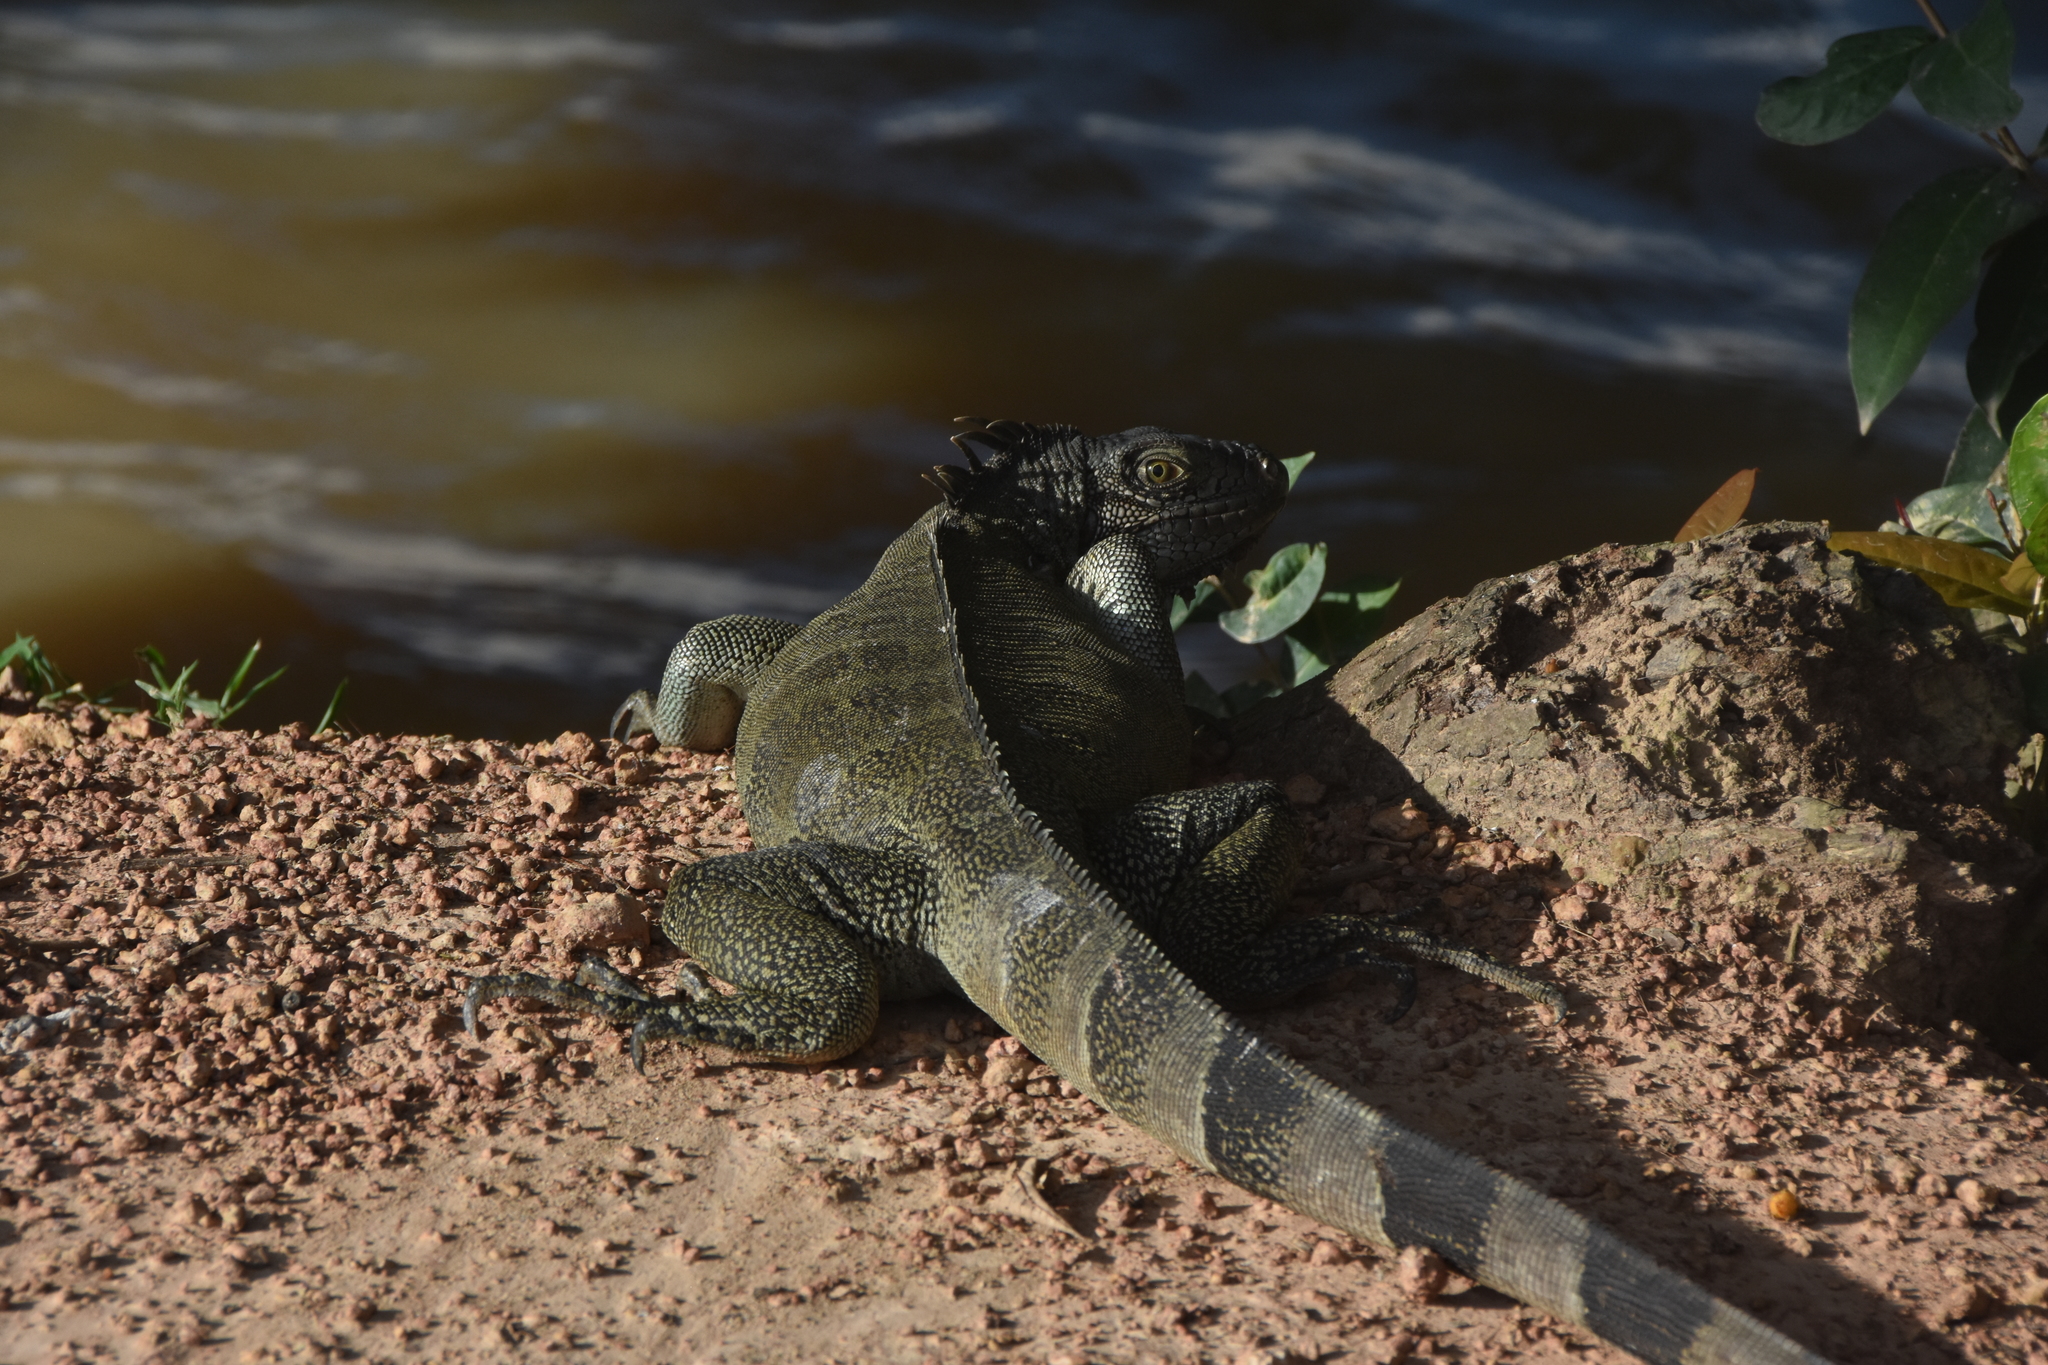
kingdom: Animalia
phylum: Chordata
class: Squamata
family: Iguanidae
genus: Iguana
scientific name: Iguana iguana
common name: Green iguana
